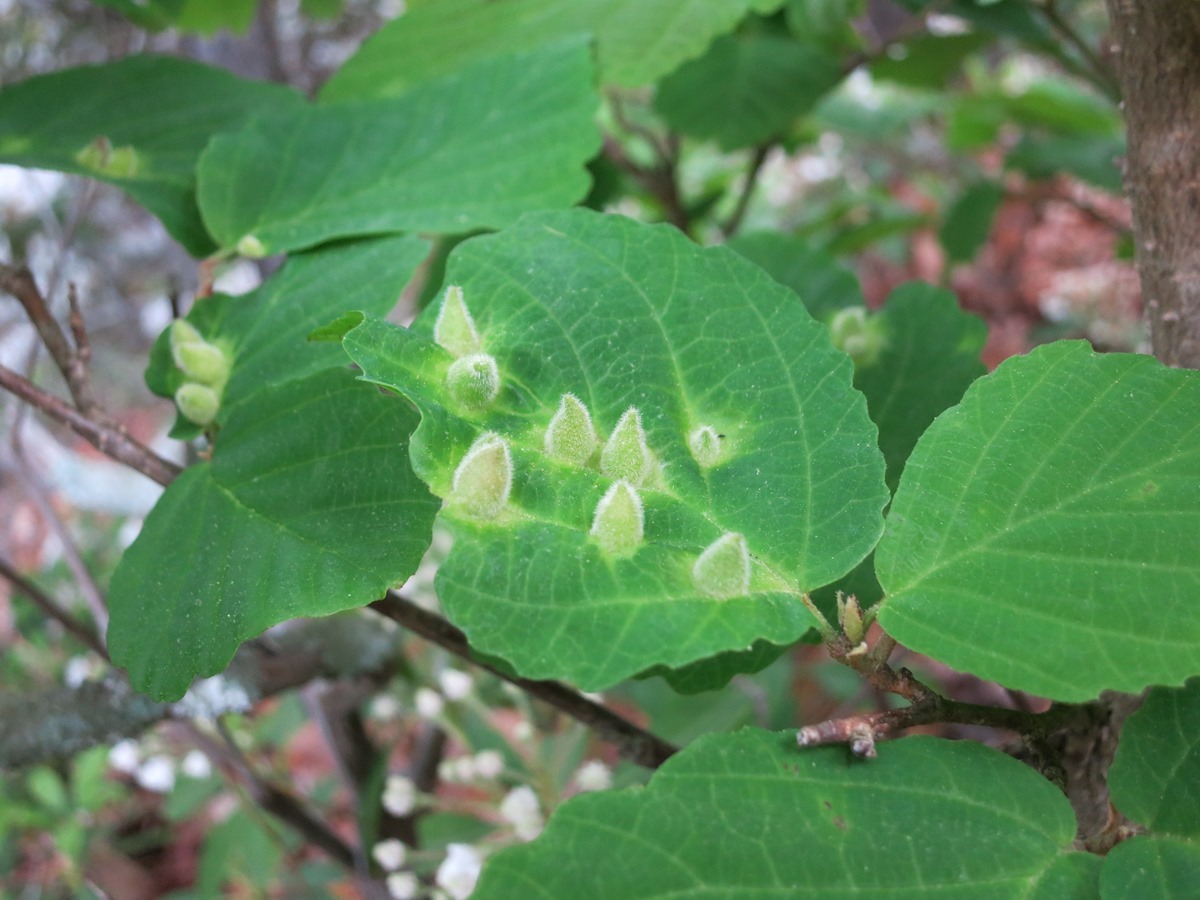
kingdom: Animalia
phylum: Arthropoda
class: Insecta
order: Hemiptera
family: Aphididae
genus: Hormaphis
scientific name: Hormaphis hamamelidis
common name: Witch-hazel cone gall aphid
